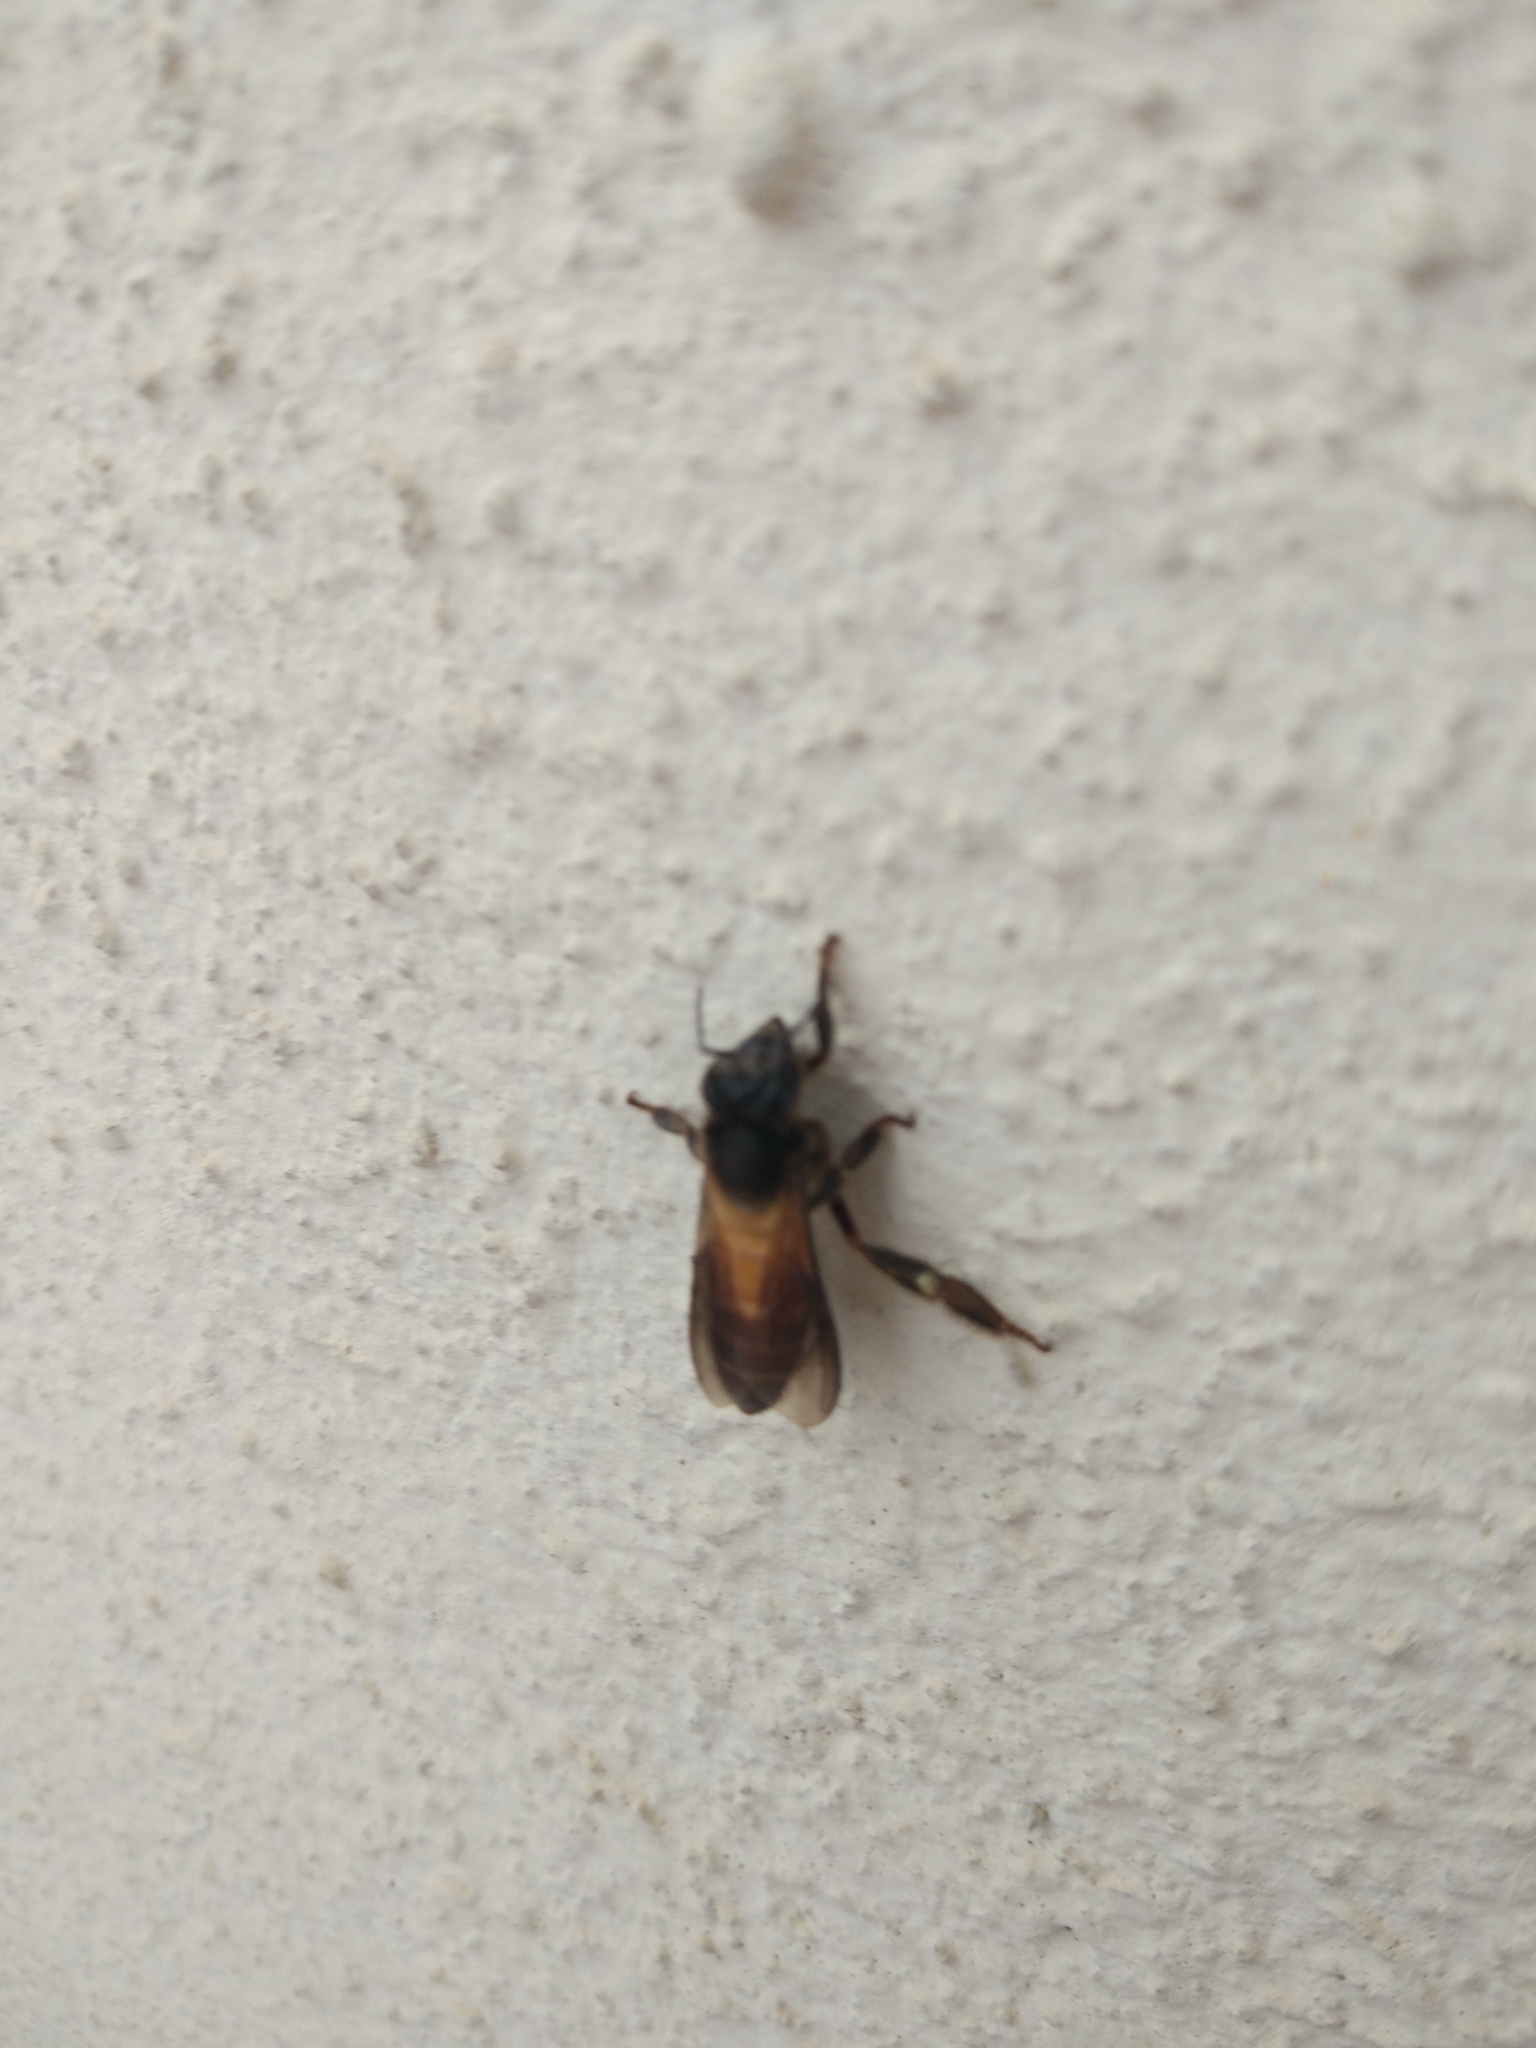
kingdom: Animalia
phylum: Arthropoda
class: Insecta
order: Hymenoptera
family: Apidae
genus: Apis
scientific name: Apis dorsata
